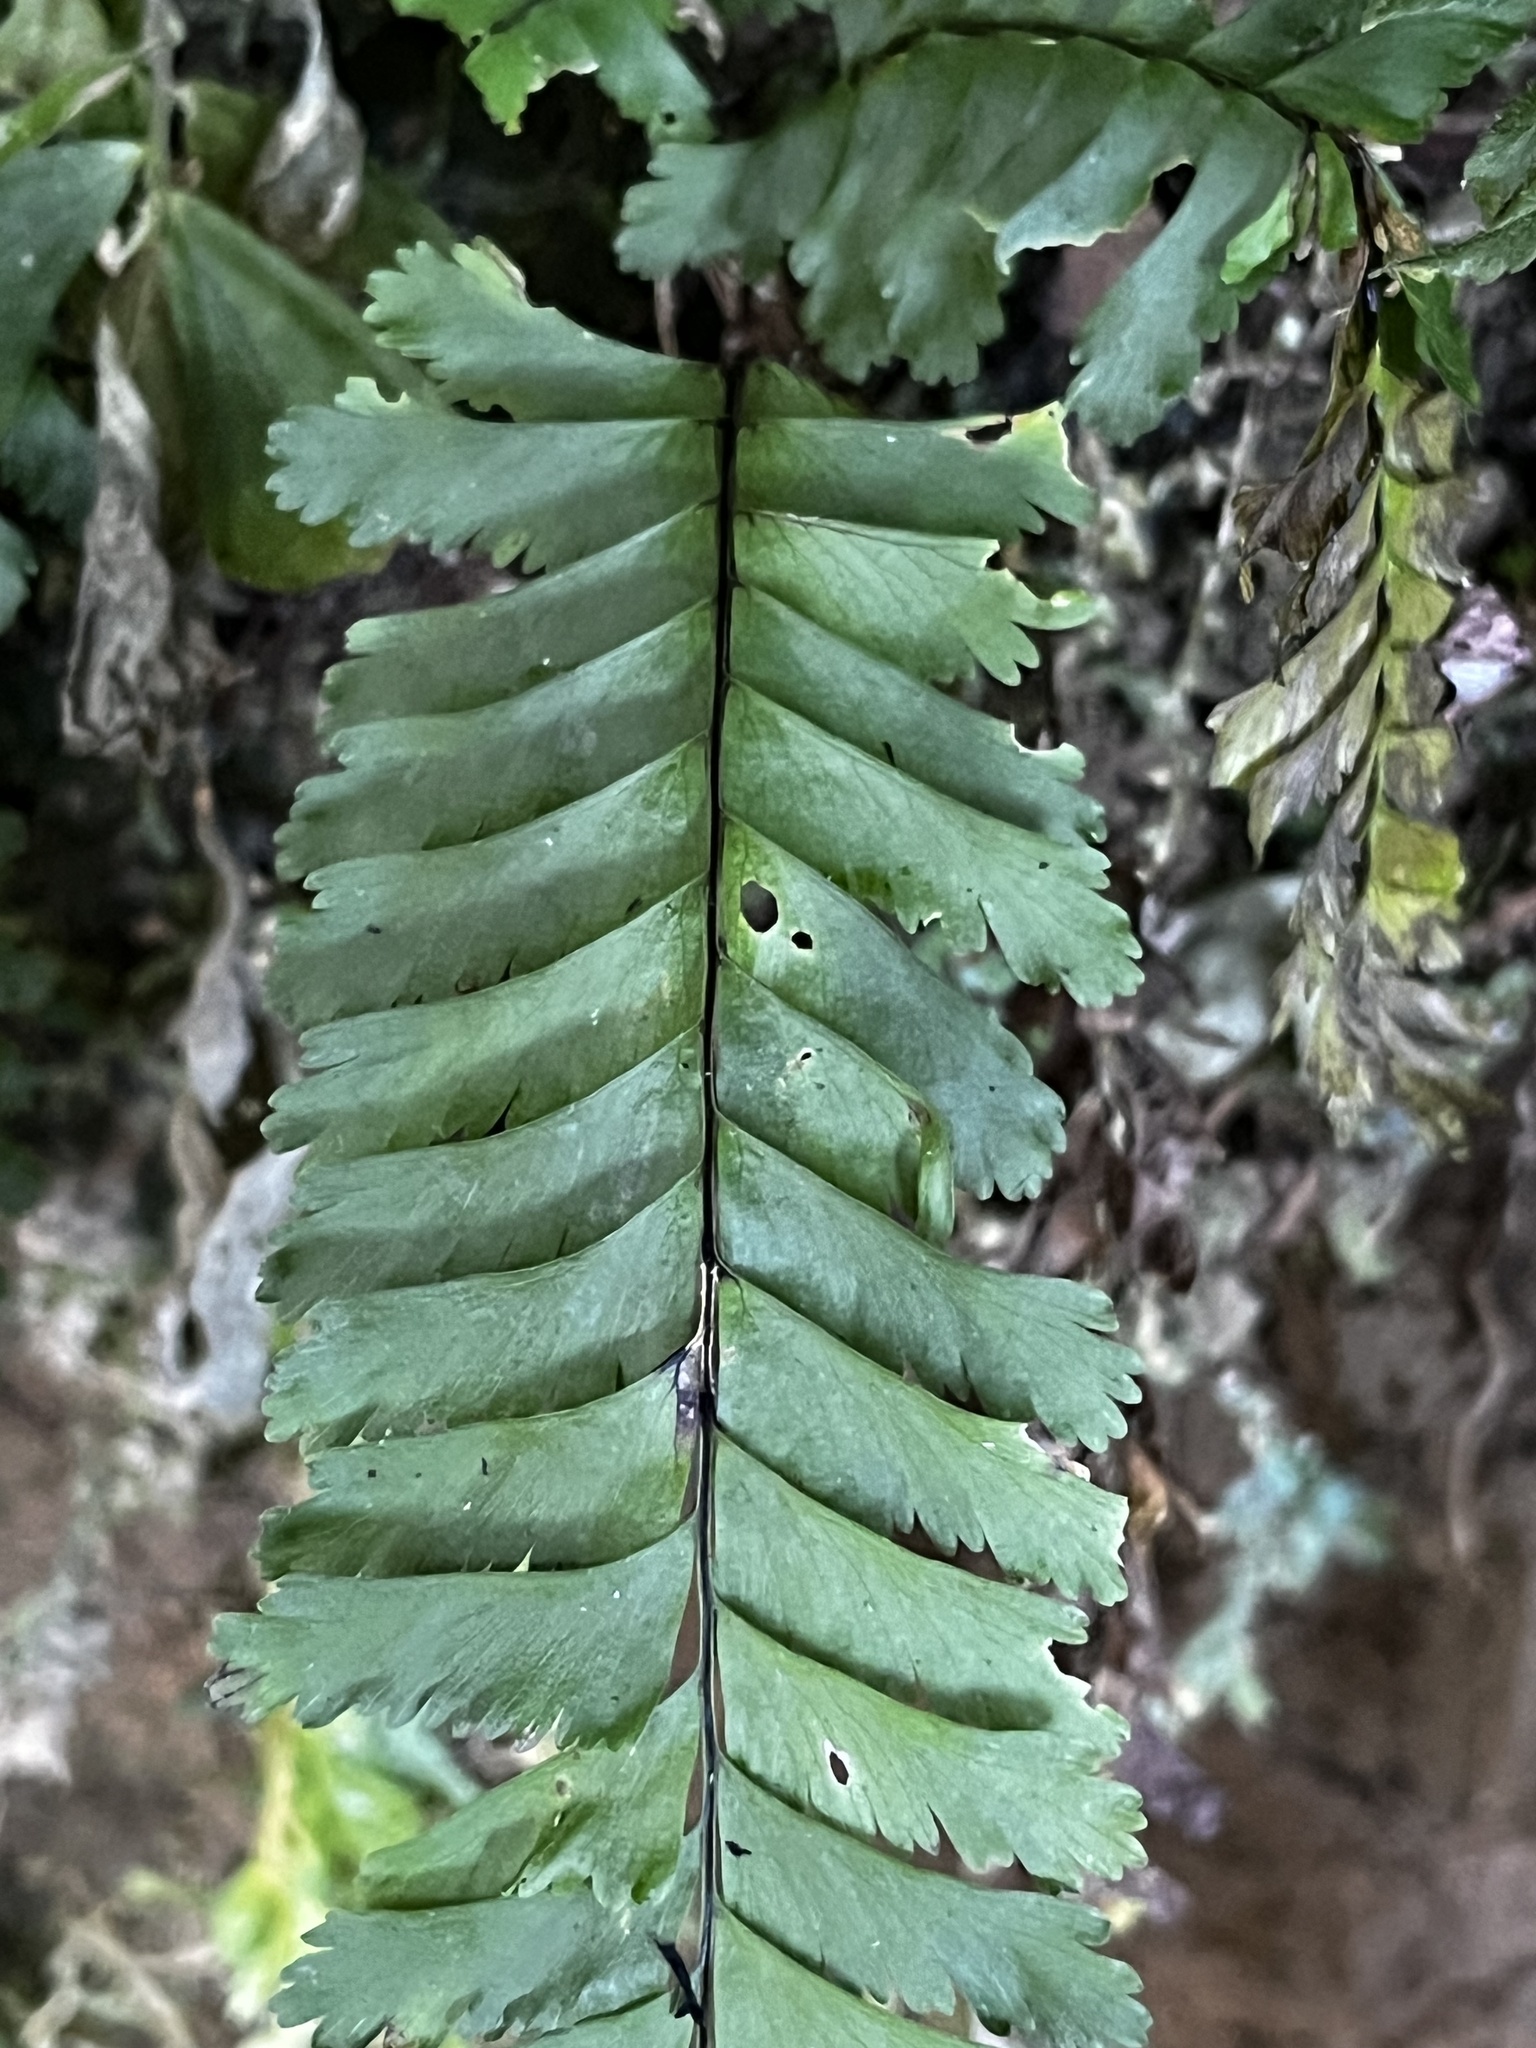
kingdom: Plantae
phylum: Tracheophyta
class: Polypodiopsida
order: Polypodiales
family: Aspleniaceae
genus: Hymenasplenium
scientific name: Hymenasplenium cheilosorum
